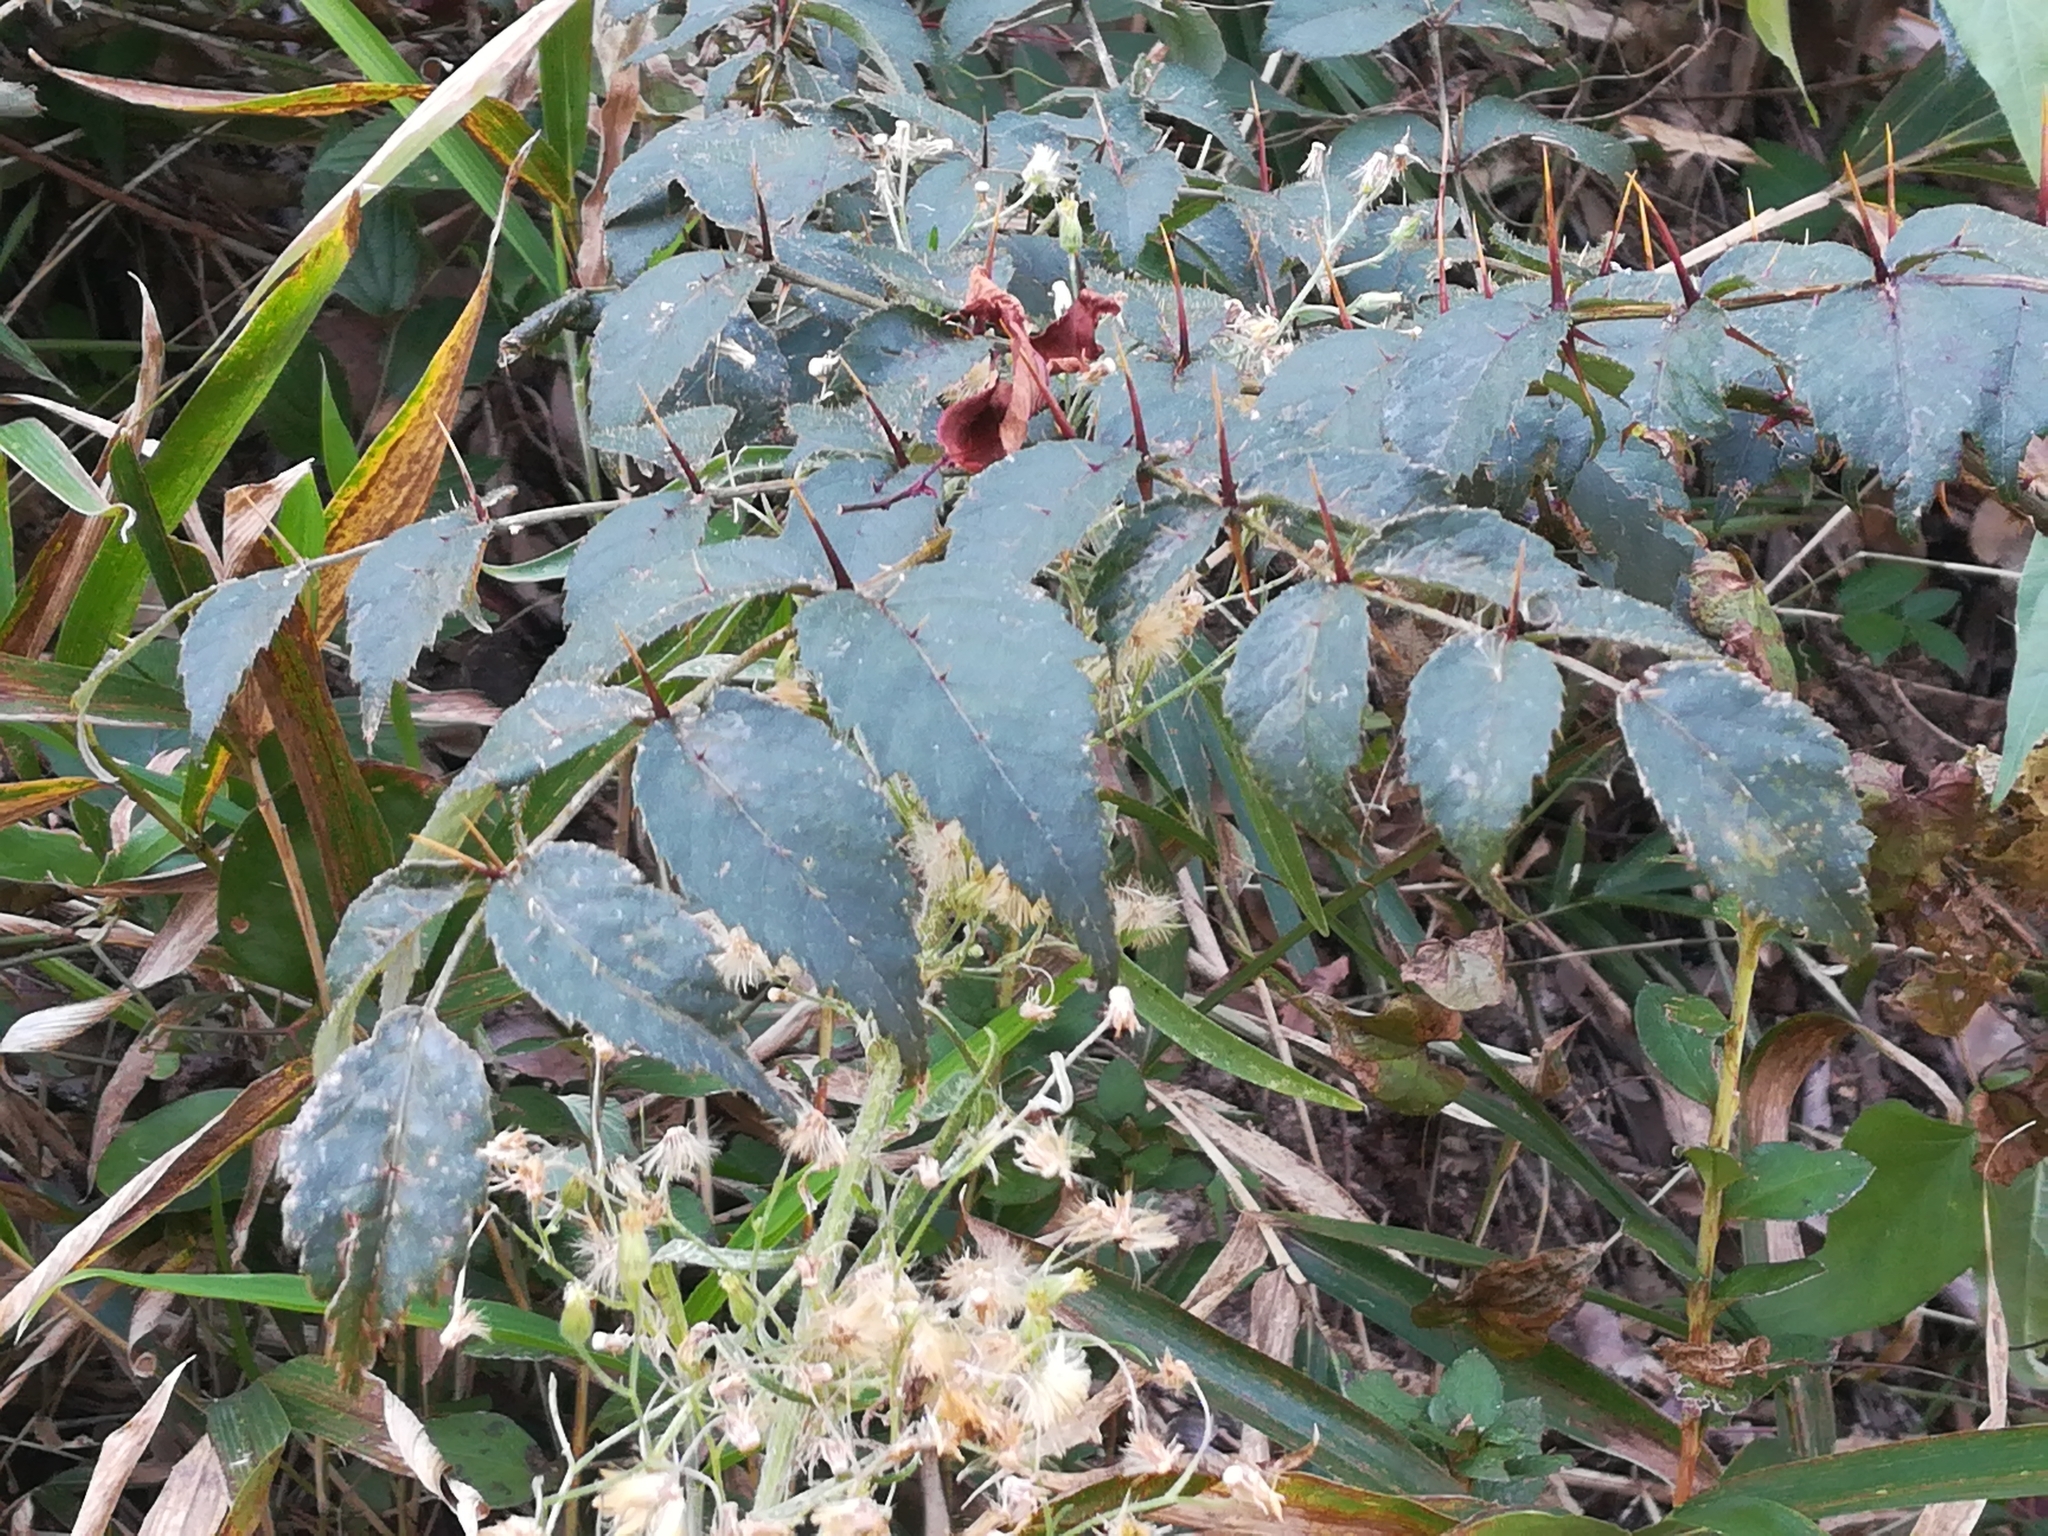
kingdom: Plantae
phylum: Tracheophyta
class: Magnoliopsida
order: Apiales
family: Araliaceae
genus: Aralia
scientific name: Aralia elata
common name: Japanese angelica-tree
